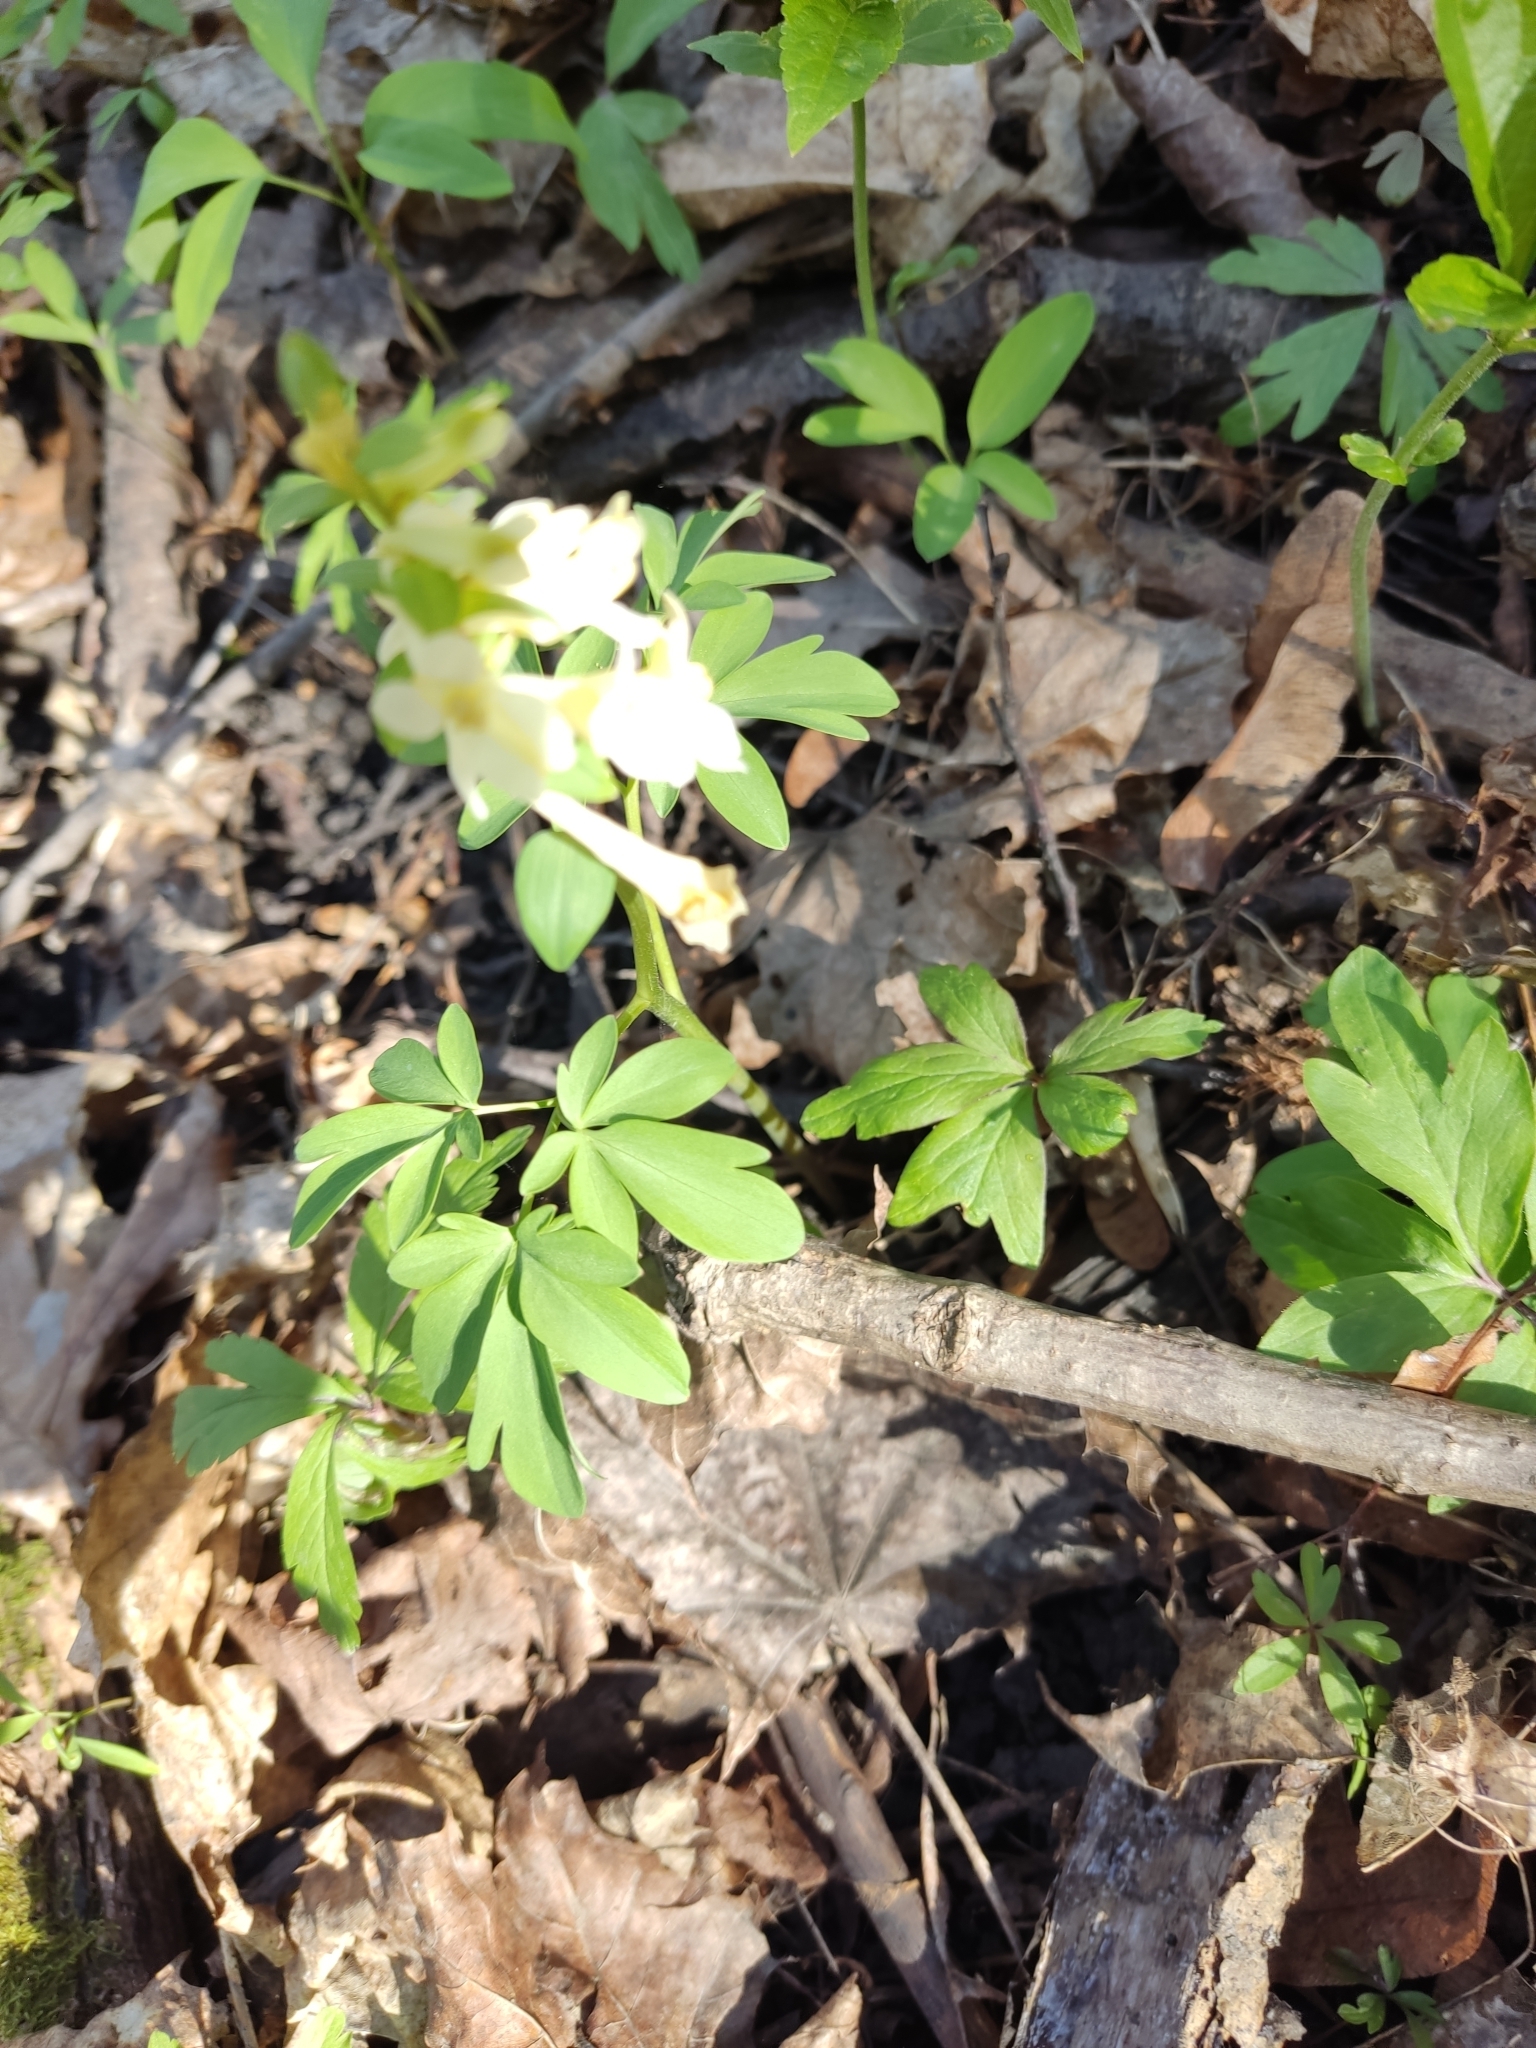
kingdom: Plantae
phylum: Tracheophyta
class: Magnoliopsida
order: Ranunculales
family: Papaveraceae
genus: Corydalis
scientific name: Corydalis cava
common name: Hollowroot
